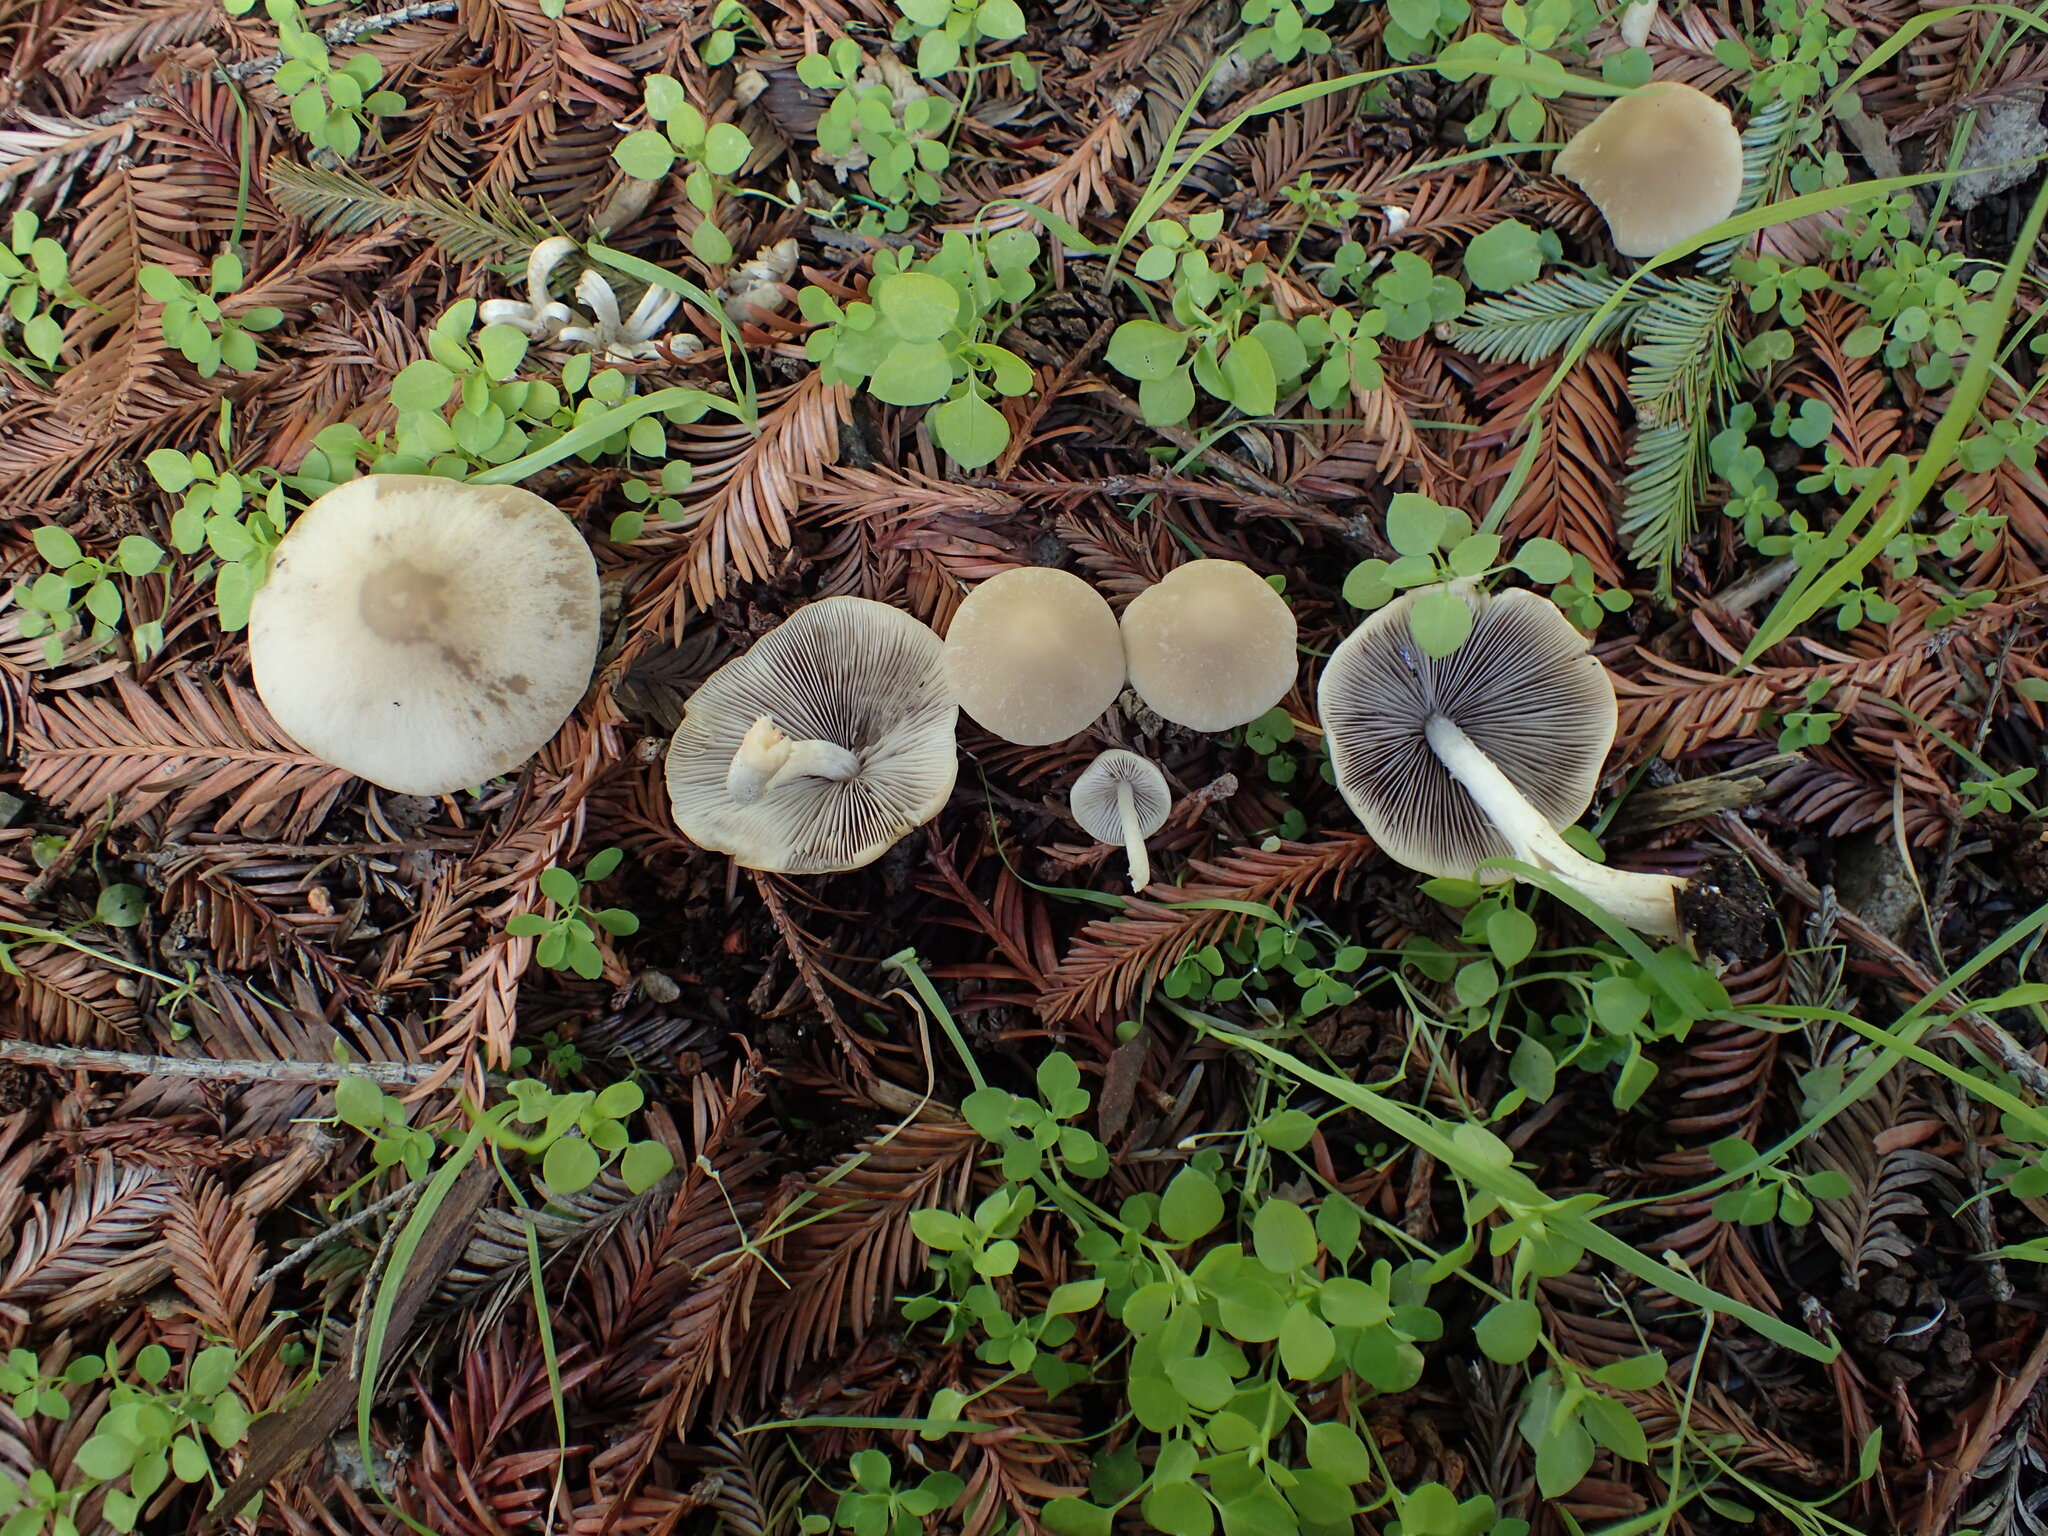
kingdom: Fungi
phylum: Basidiomycota
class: Agaricomycetes
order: Agaricales
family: Psathyrellaceae
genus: Candolleomyces
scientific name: Candolleomyces candolleanus
